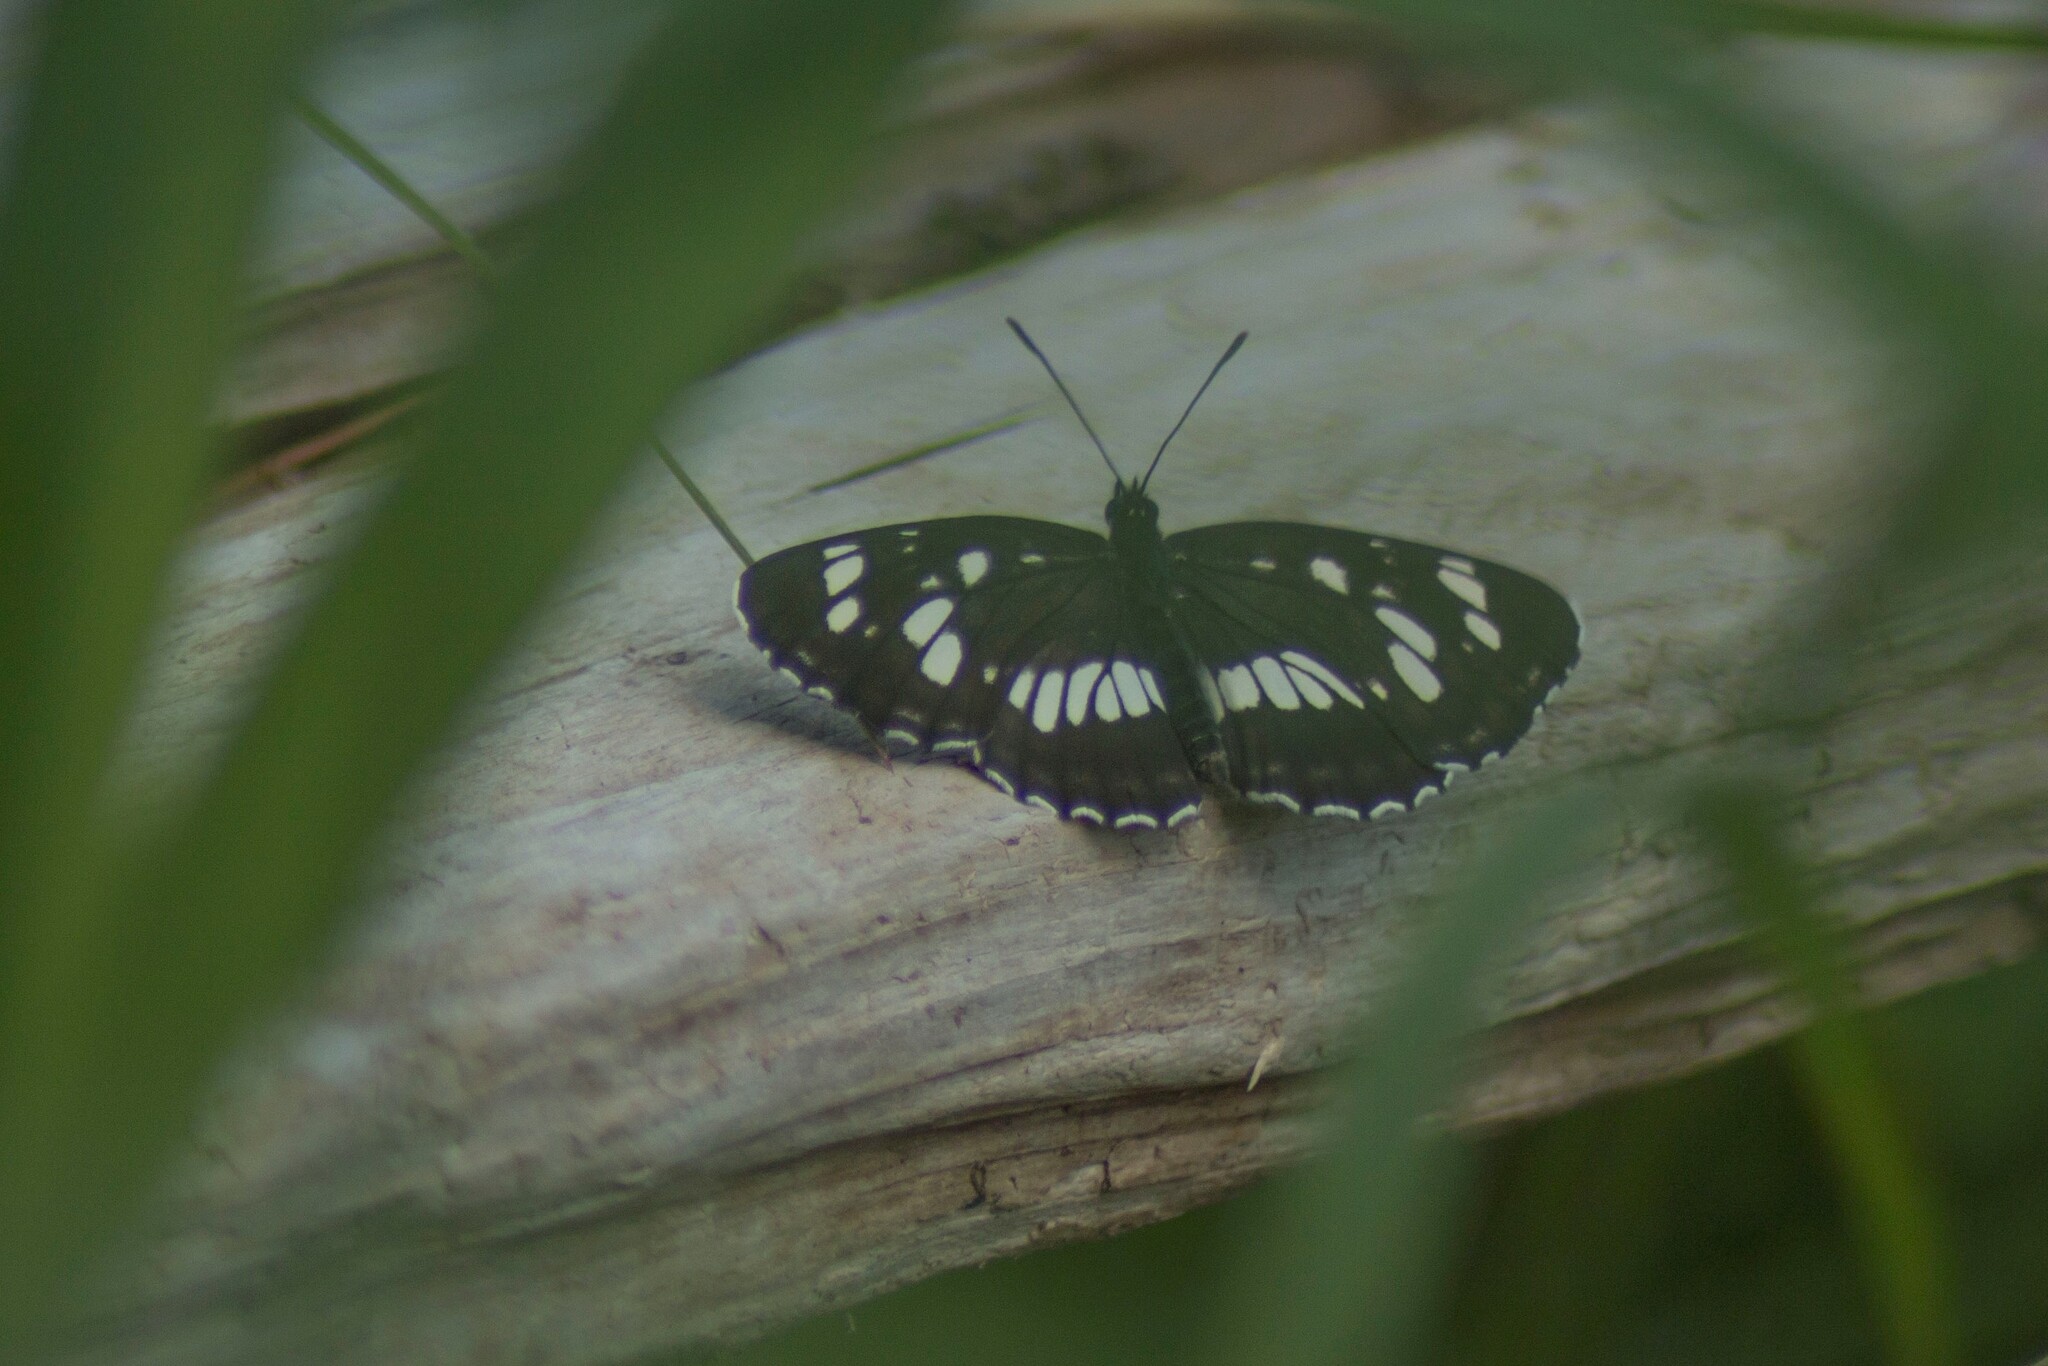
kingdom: Animalia
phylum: Arthropoda
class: Insecta
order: Lepidoptera
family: Nymphalidae
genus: Neptis
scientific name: Neptis rivularis
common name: Hungarian glider
